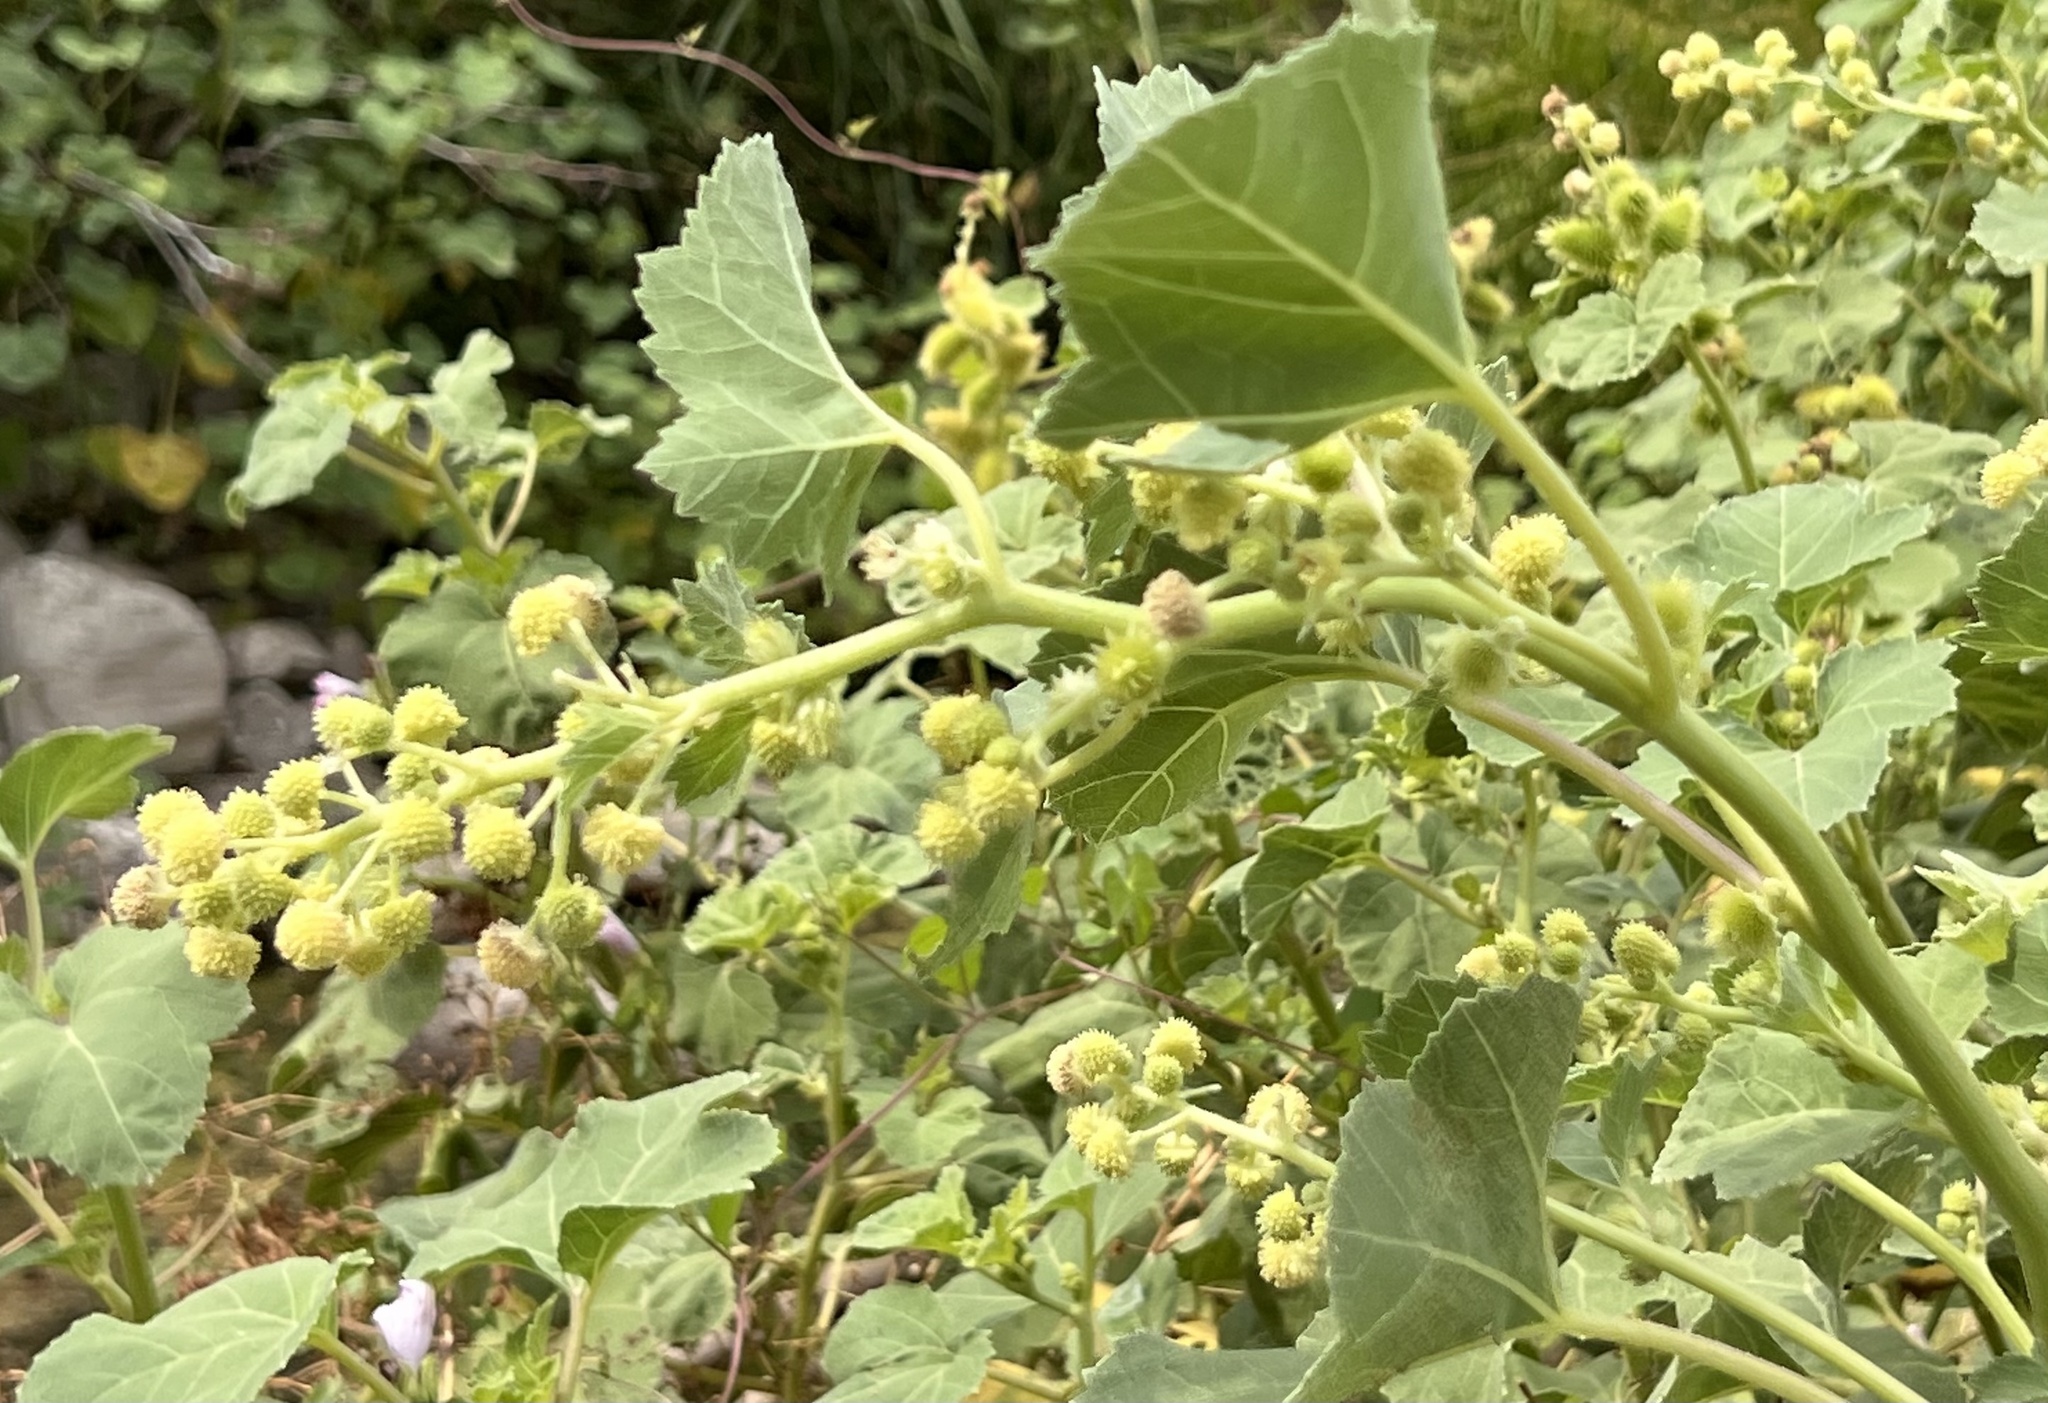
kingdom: Plantae
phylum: Tracheophyta
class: Magnoliopsida
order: Asterales
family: Asteraceae
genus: Xanthium
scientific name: Xanthium strumarium
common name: Rough cocklebur
